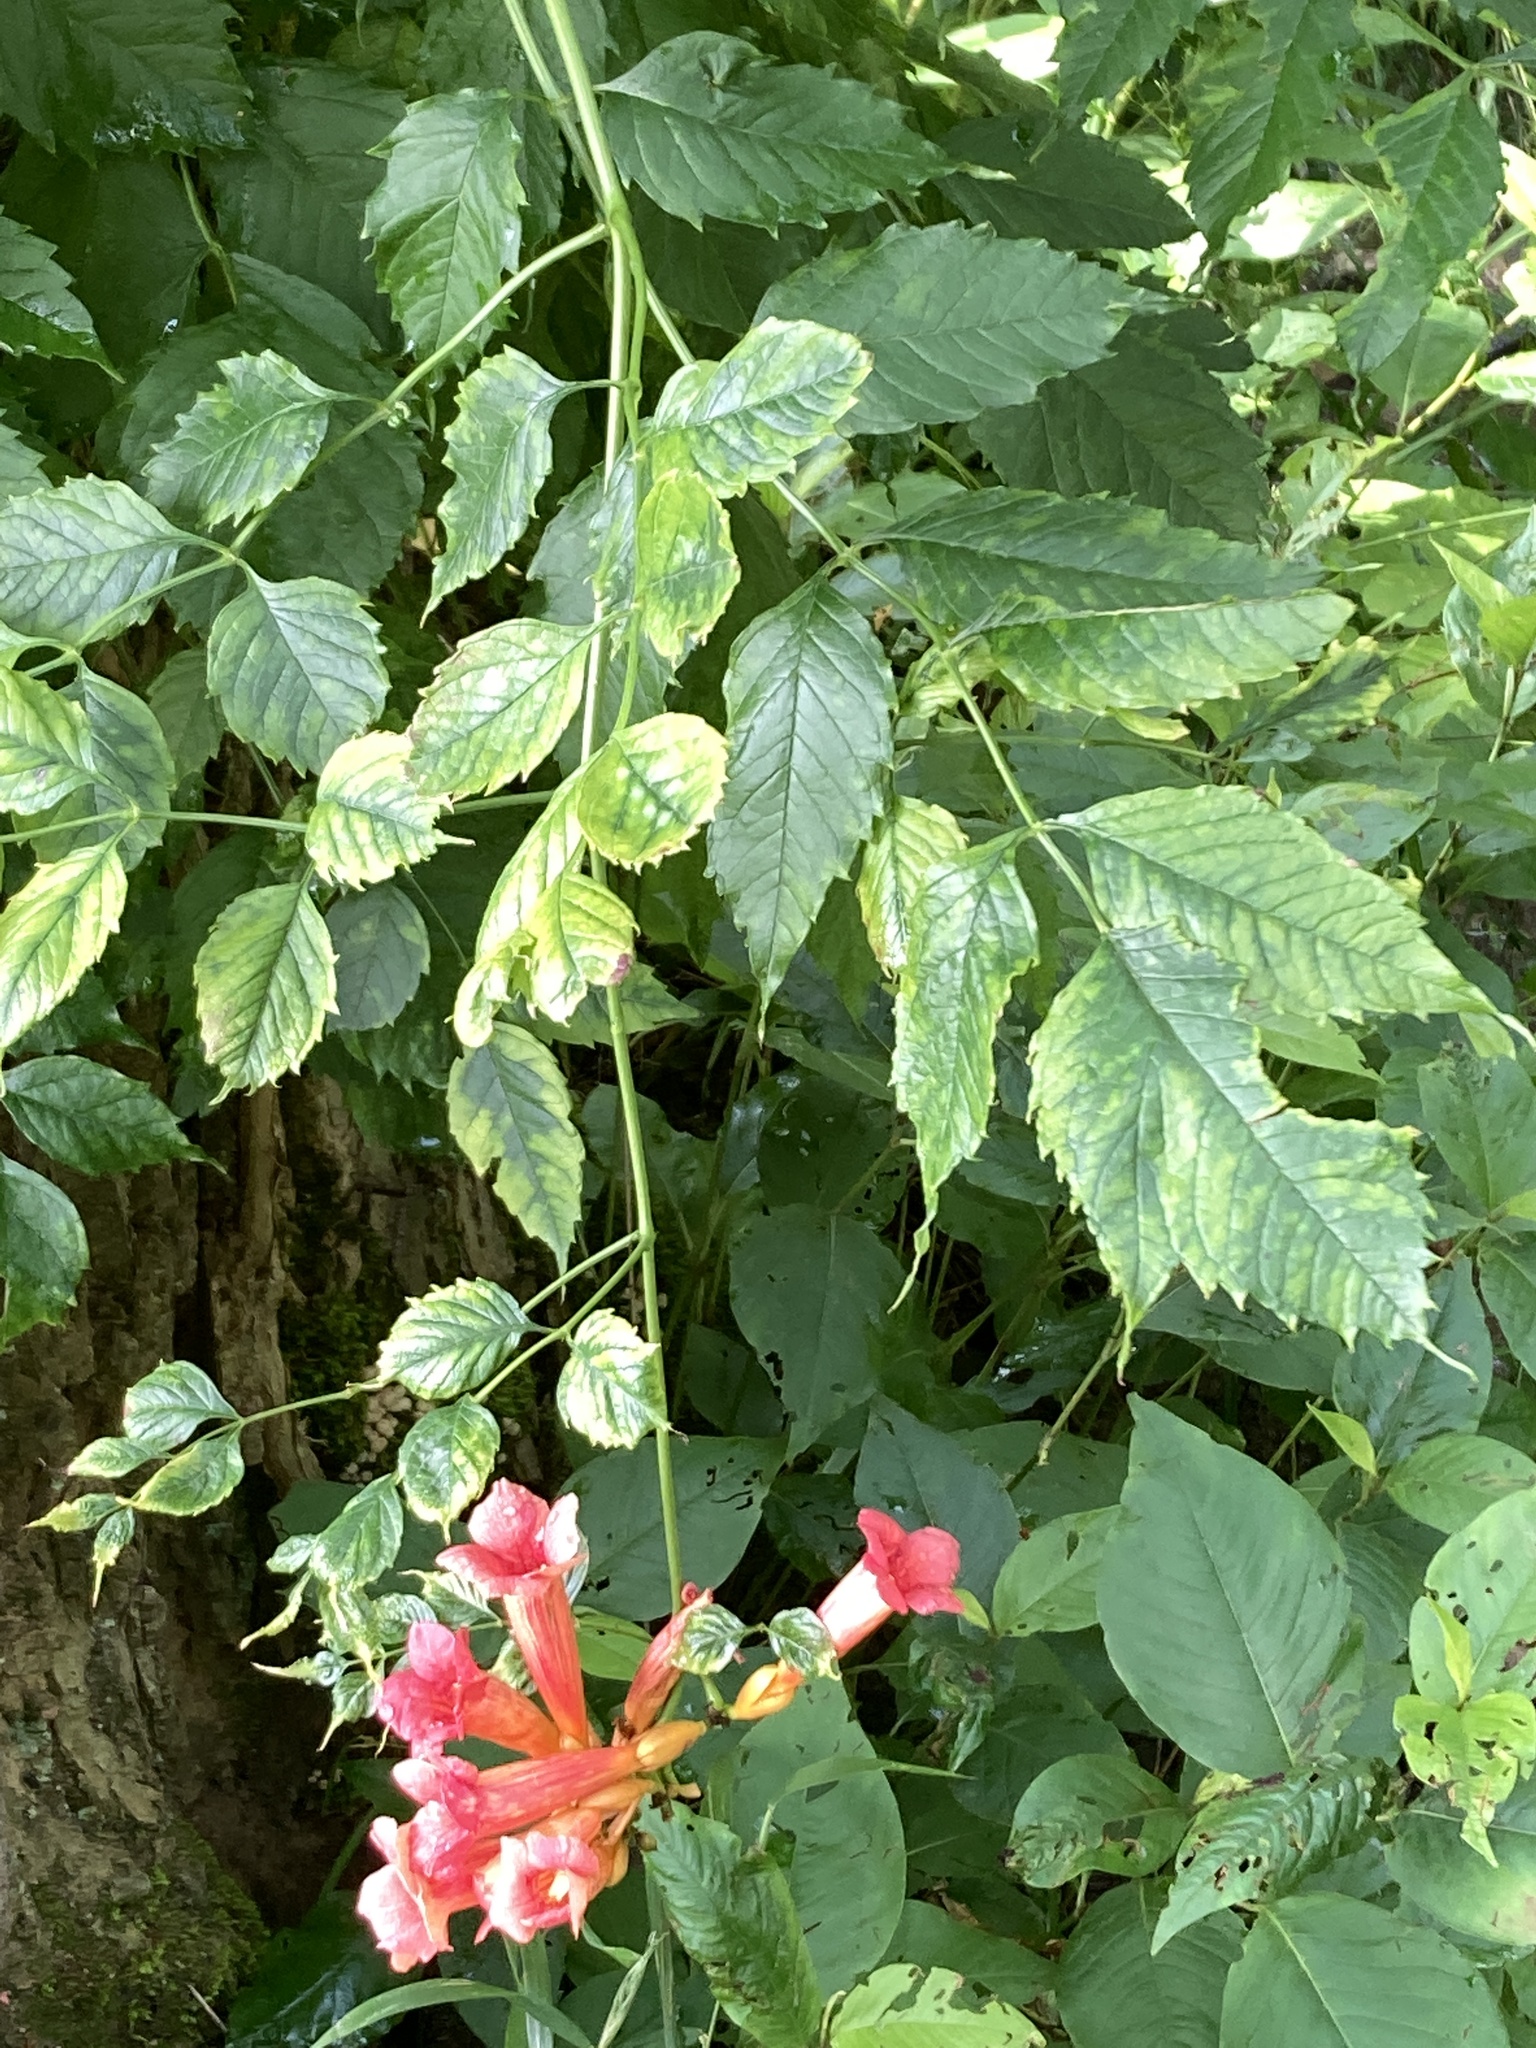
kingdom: Plantae
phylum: Tracheophyta
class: Magnoliopsida
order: Lamiales
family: Bignoniaceae
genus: Campsis
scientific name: Campsis radicans
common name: Trumpet-creeper
